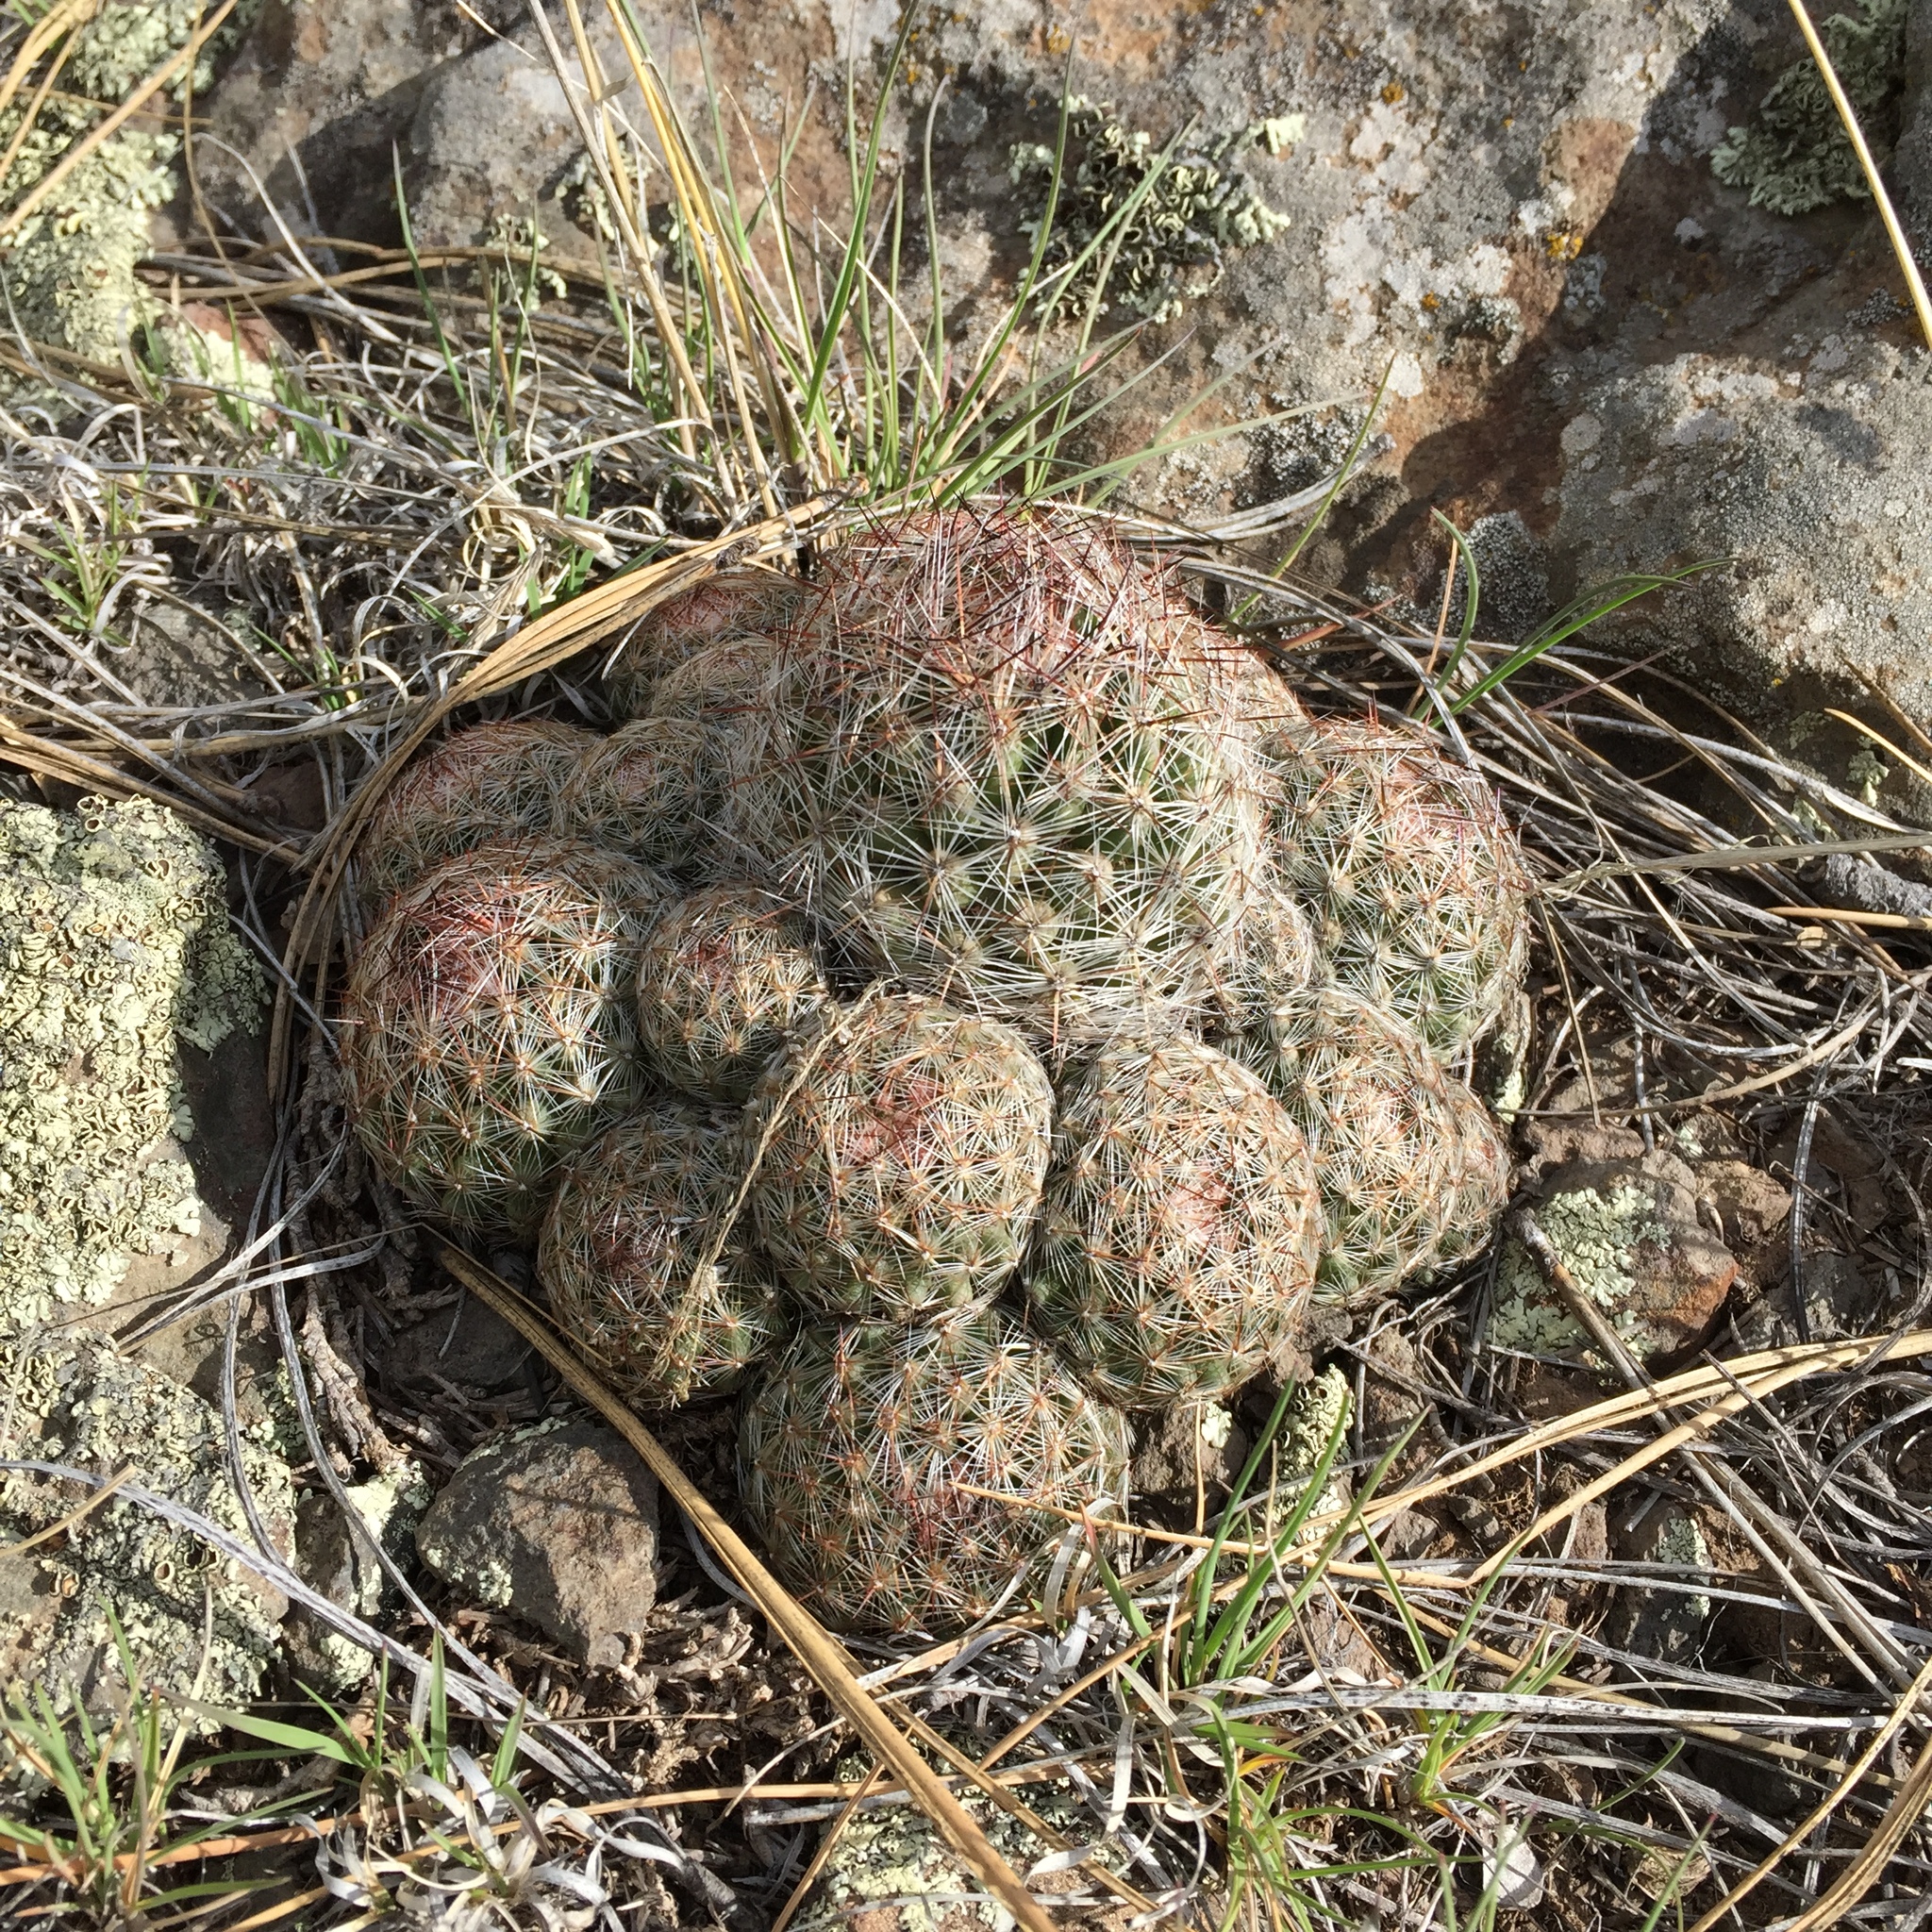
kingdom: Plantae
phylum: Tracheophyta
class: Magnoliopsida
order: Caryophyllales
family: Cactaceae
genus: Pelecyphora
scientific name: Pelecyphora vivipara
